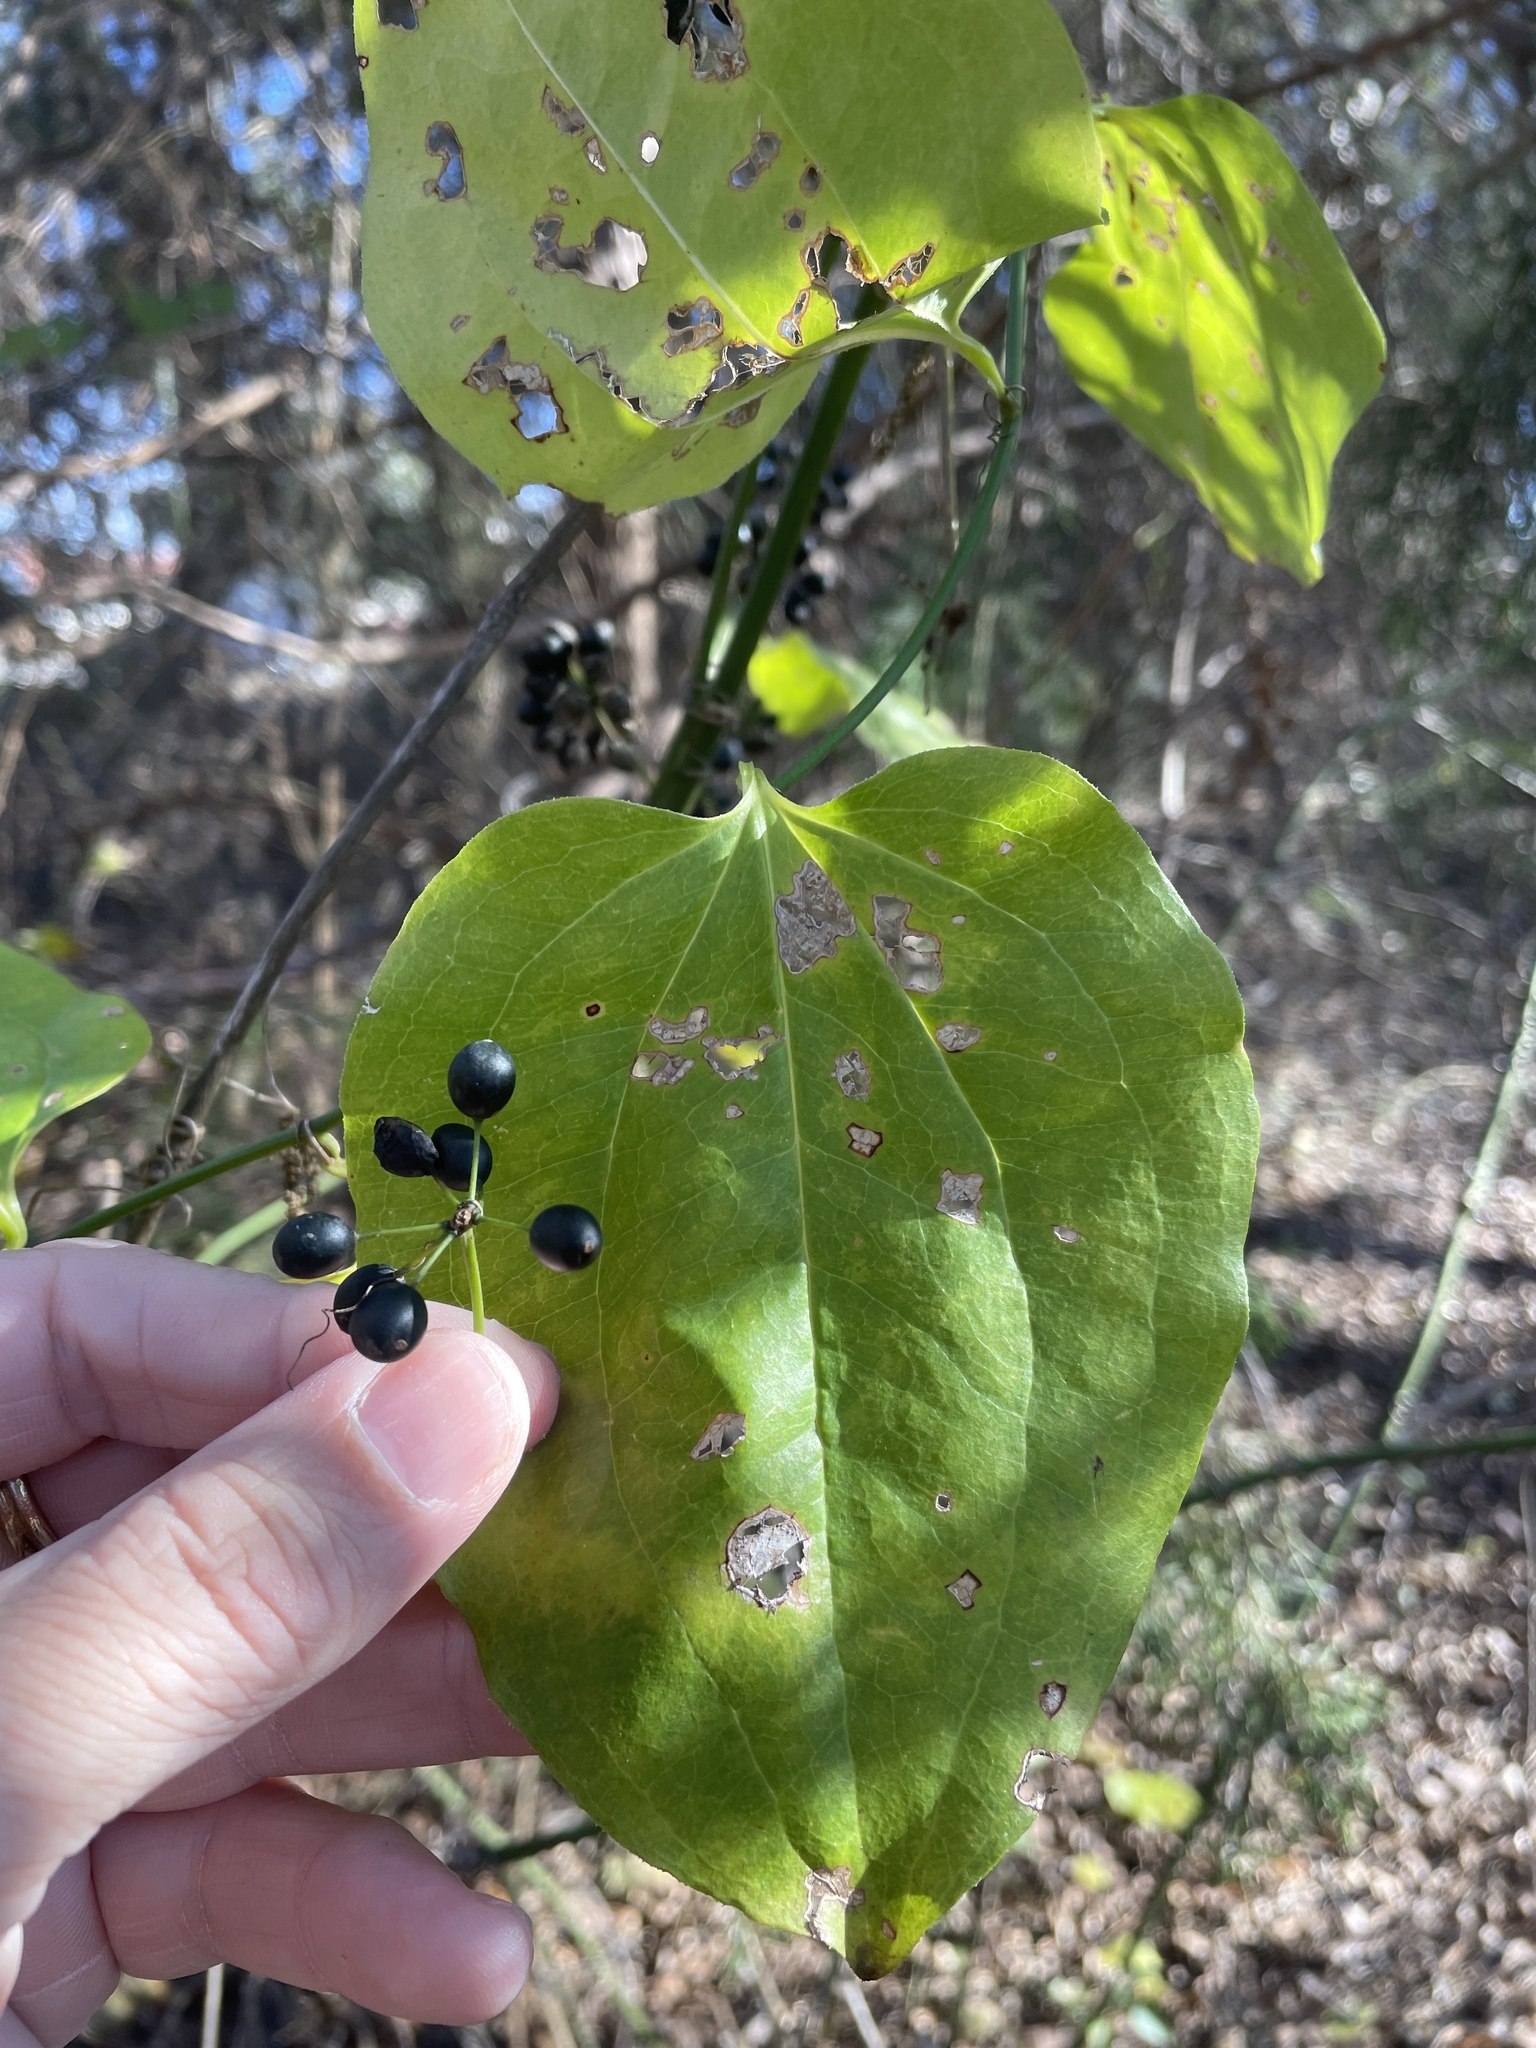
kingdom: Plantae
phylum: Tracheophyta
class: Liliopsida
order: Liliales
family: Smilacaceae
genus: Smilax
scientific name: Smilax tamnoides
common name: Hellfetter
